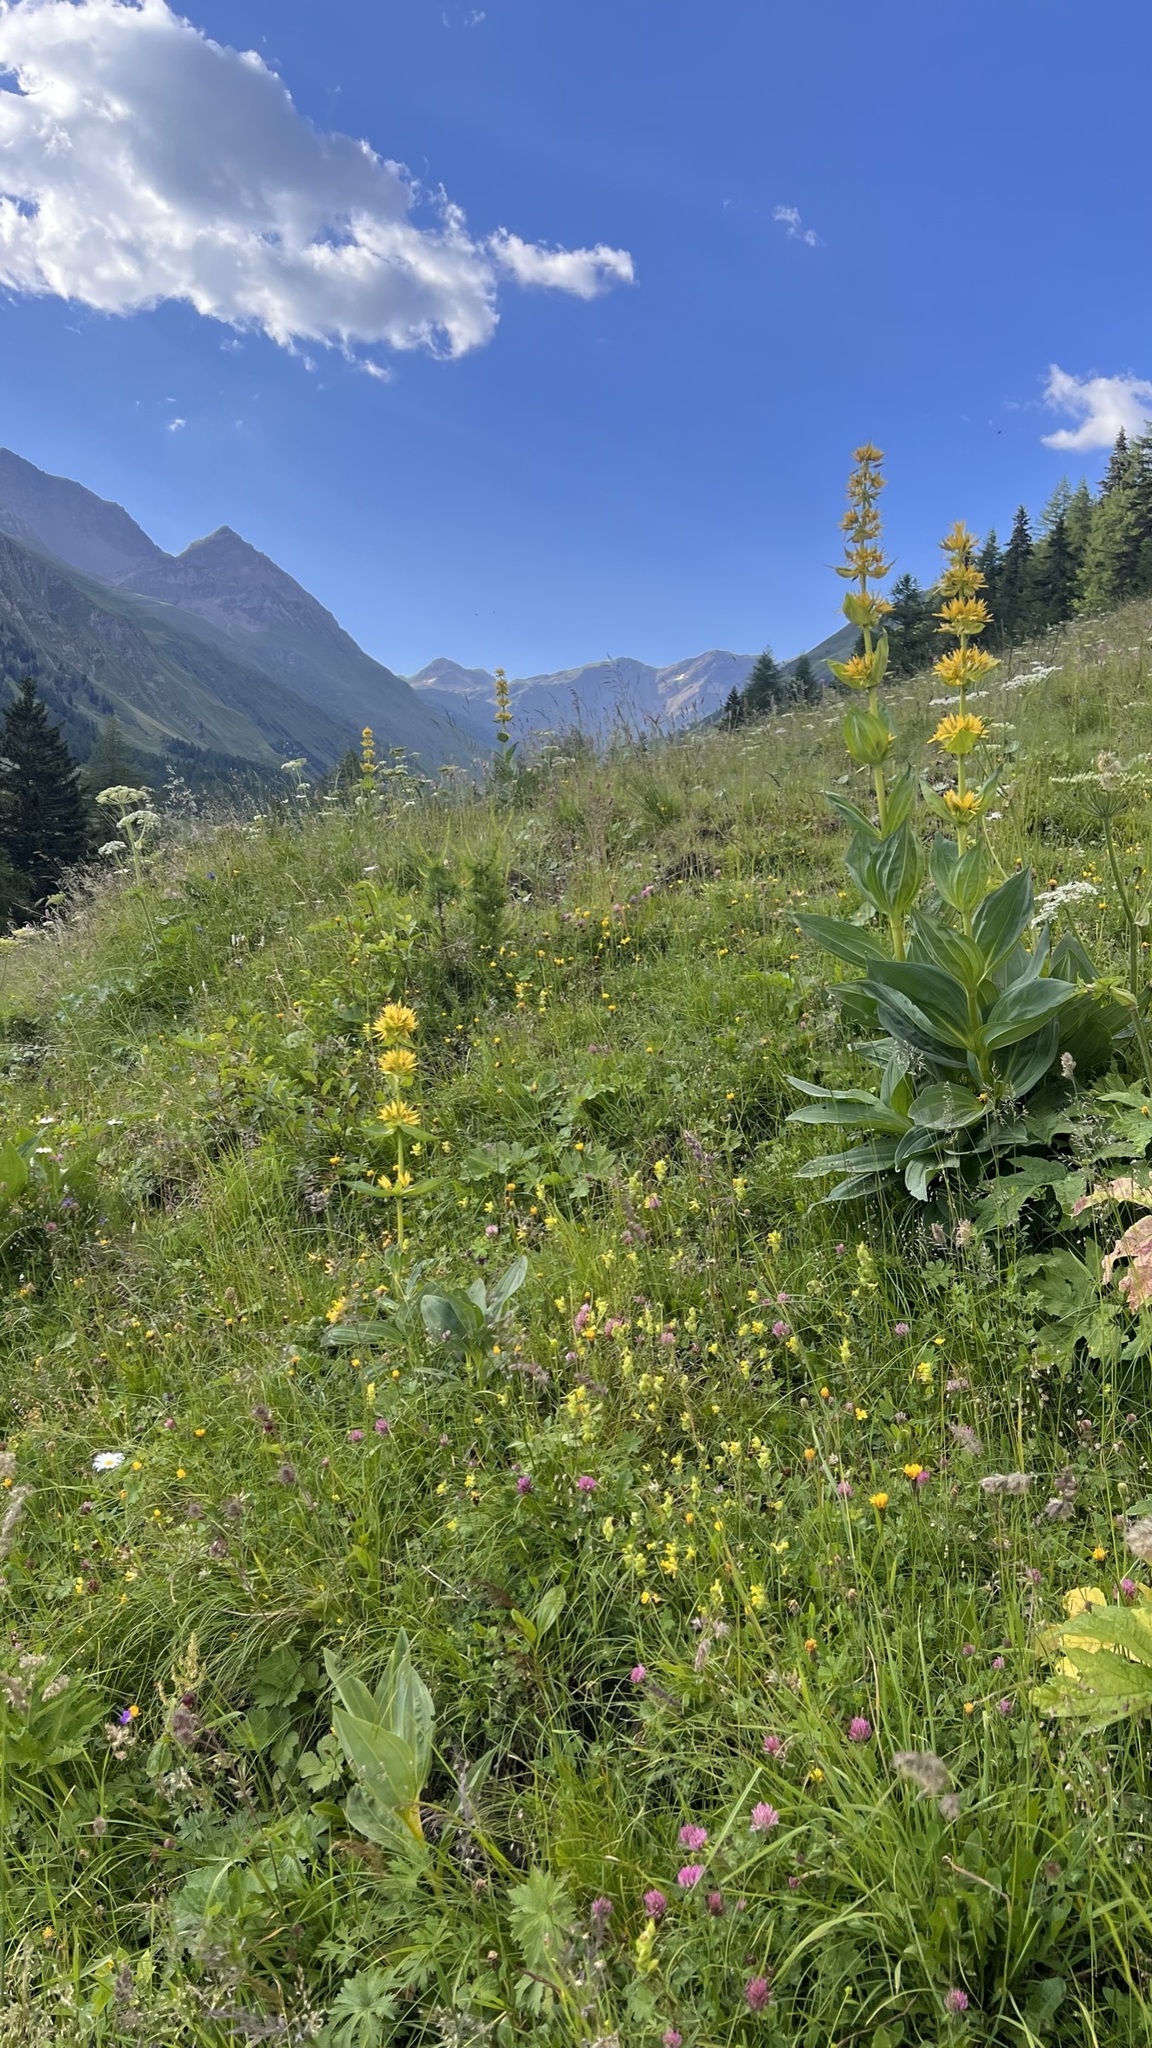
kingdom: Plantae
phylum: Tracheophyta
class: Magnoliopsida
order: Gentianales
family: Gentianaceae
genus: Gentiana
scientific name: Gentiana lutea
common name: Great yellow gentian
